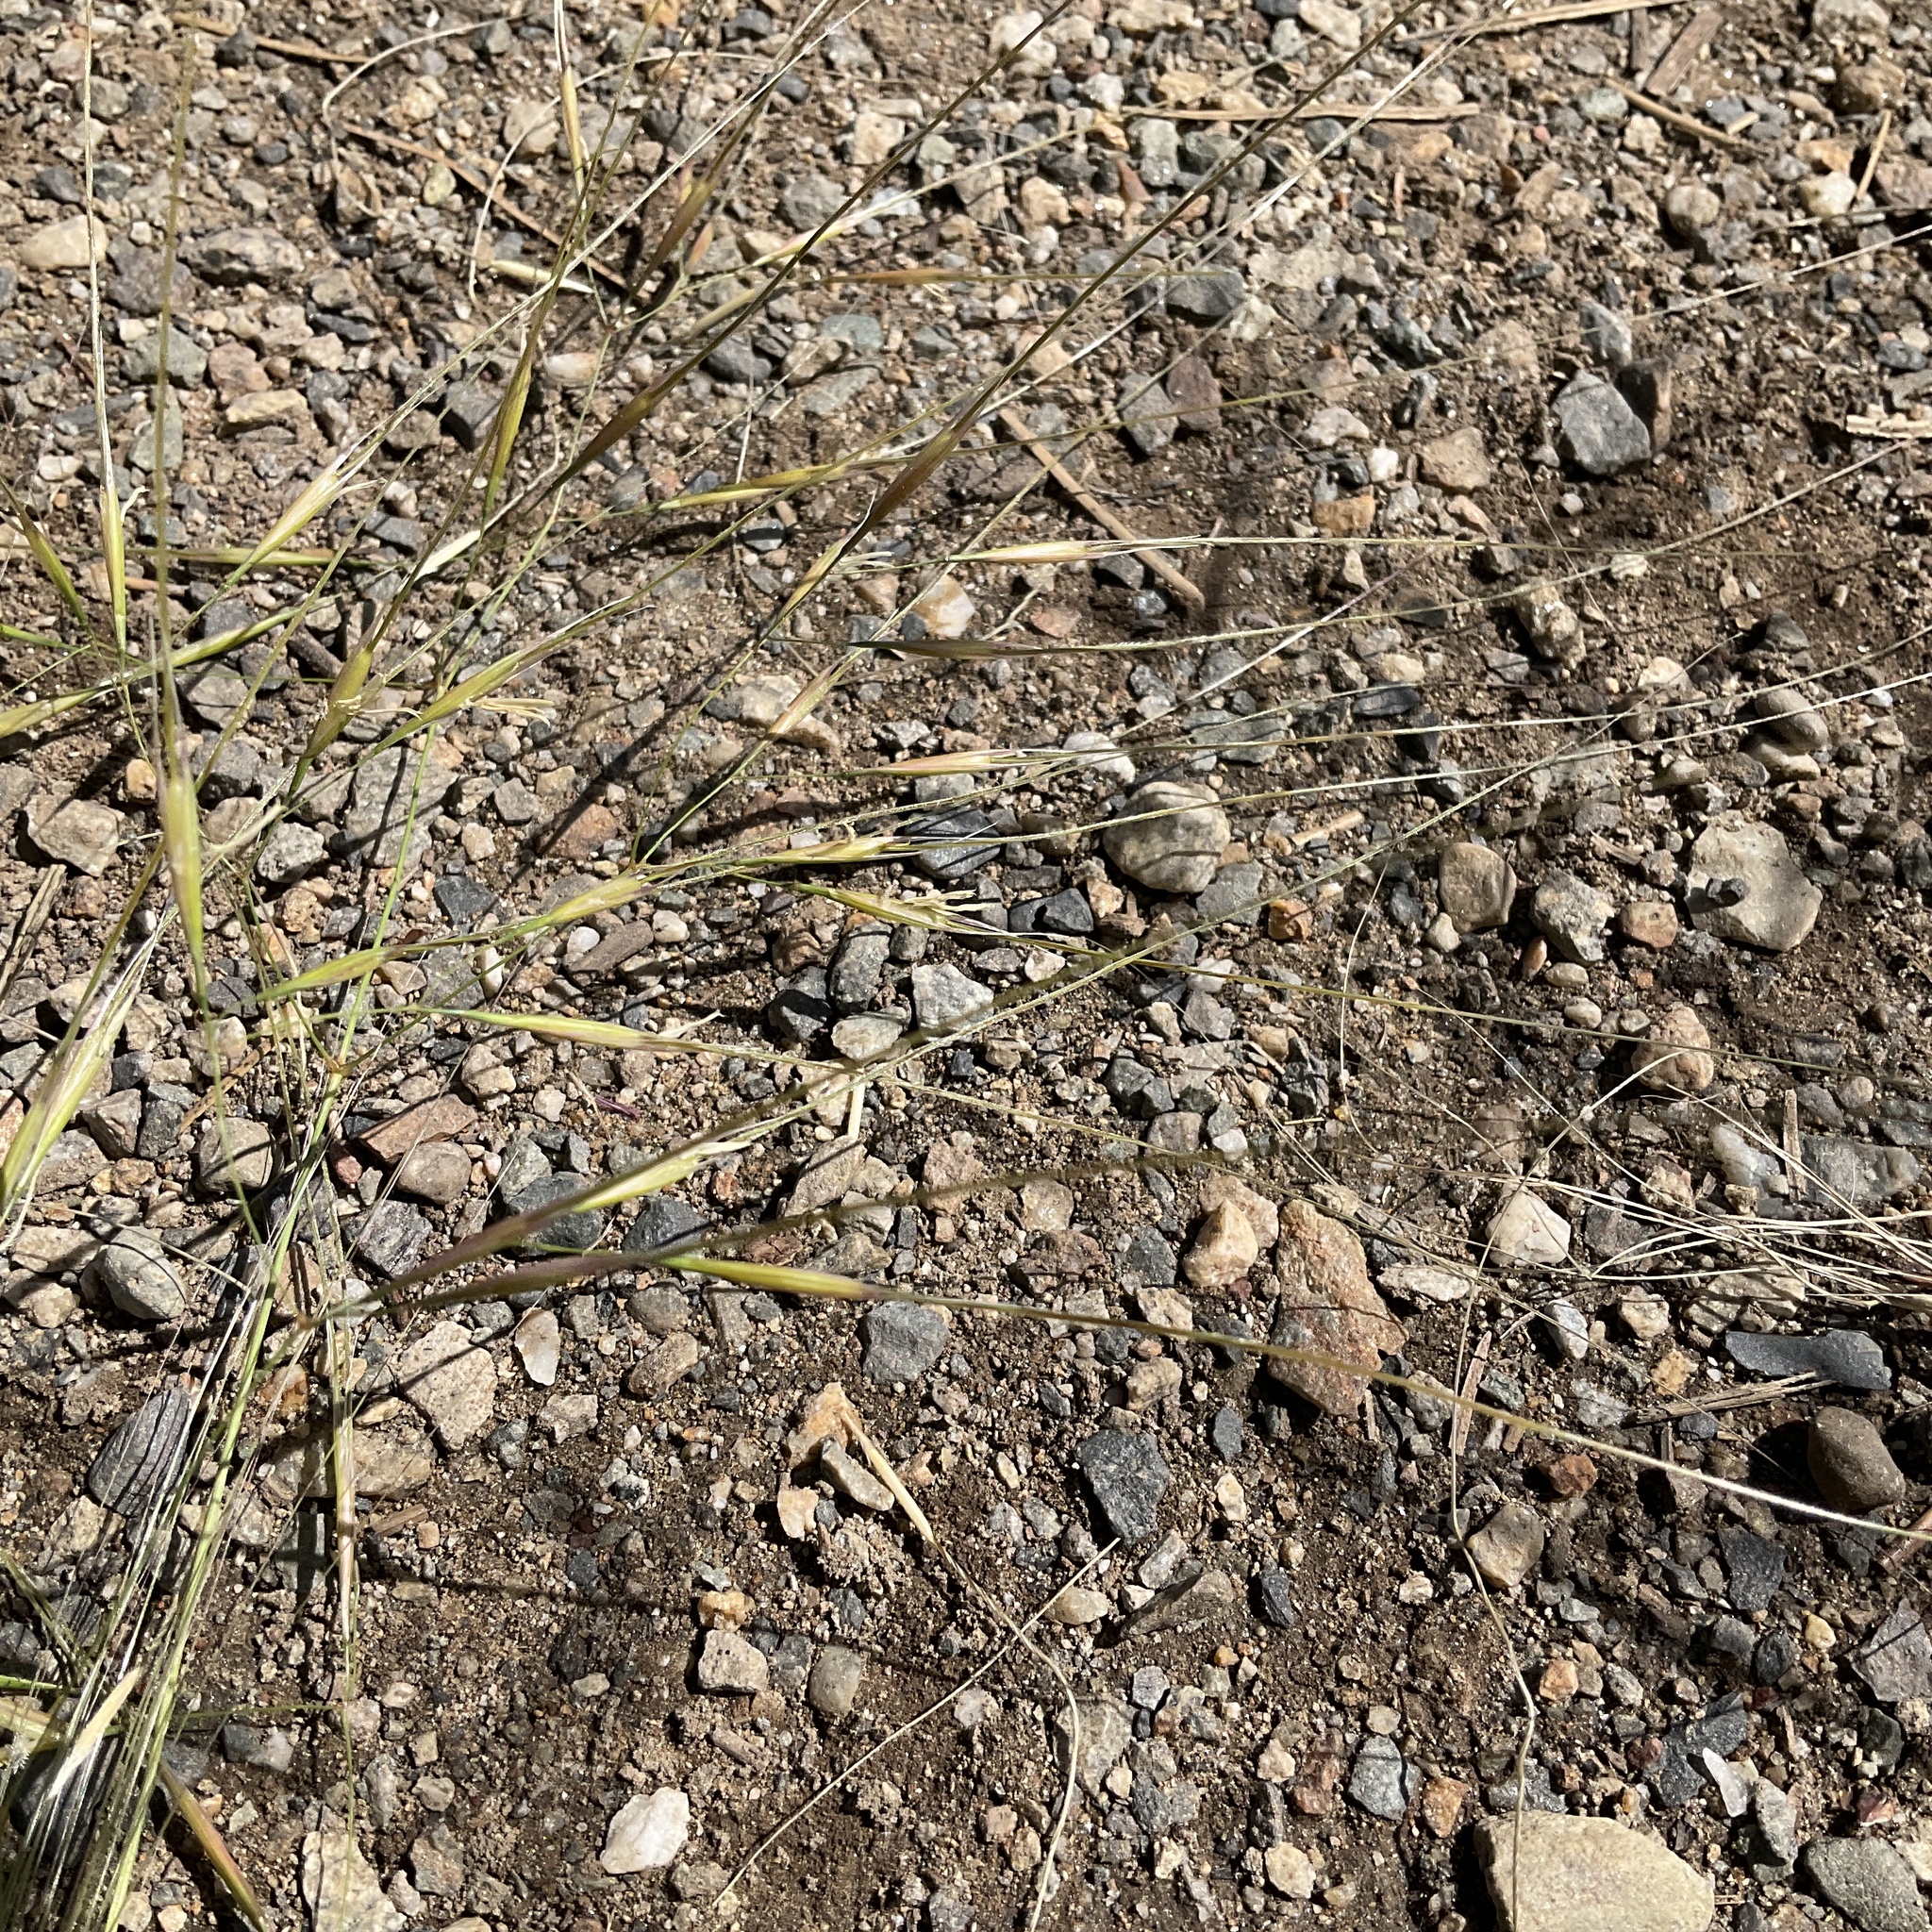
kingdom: Plantae
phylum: Tracheophyta
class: Liliopsida
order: Poales
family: Poaceae
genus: Hesperostipa
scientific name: Hesperostipa comata
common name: Needle-and-thread grass
